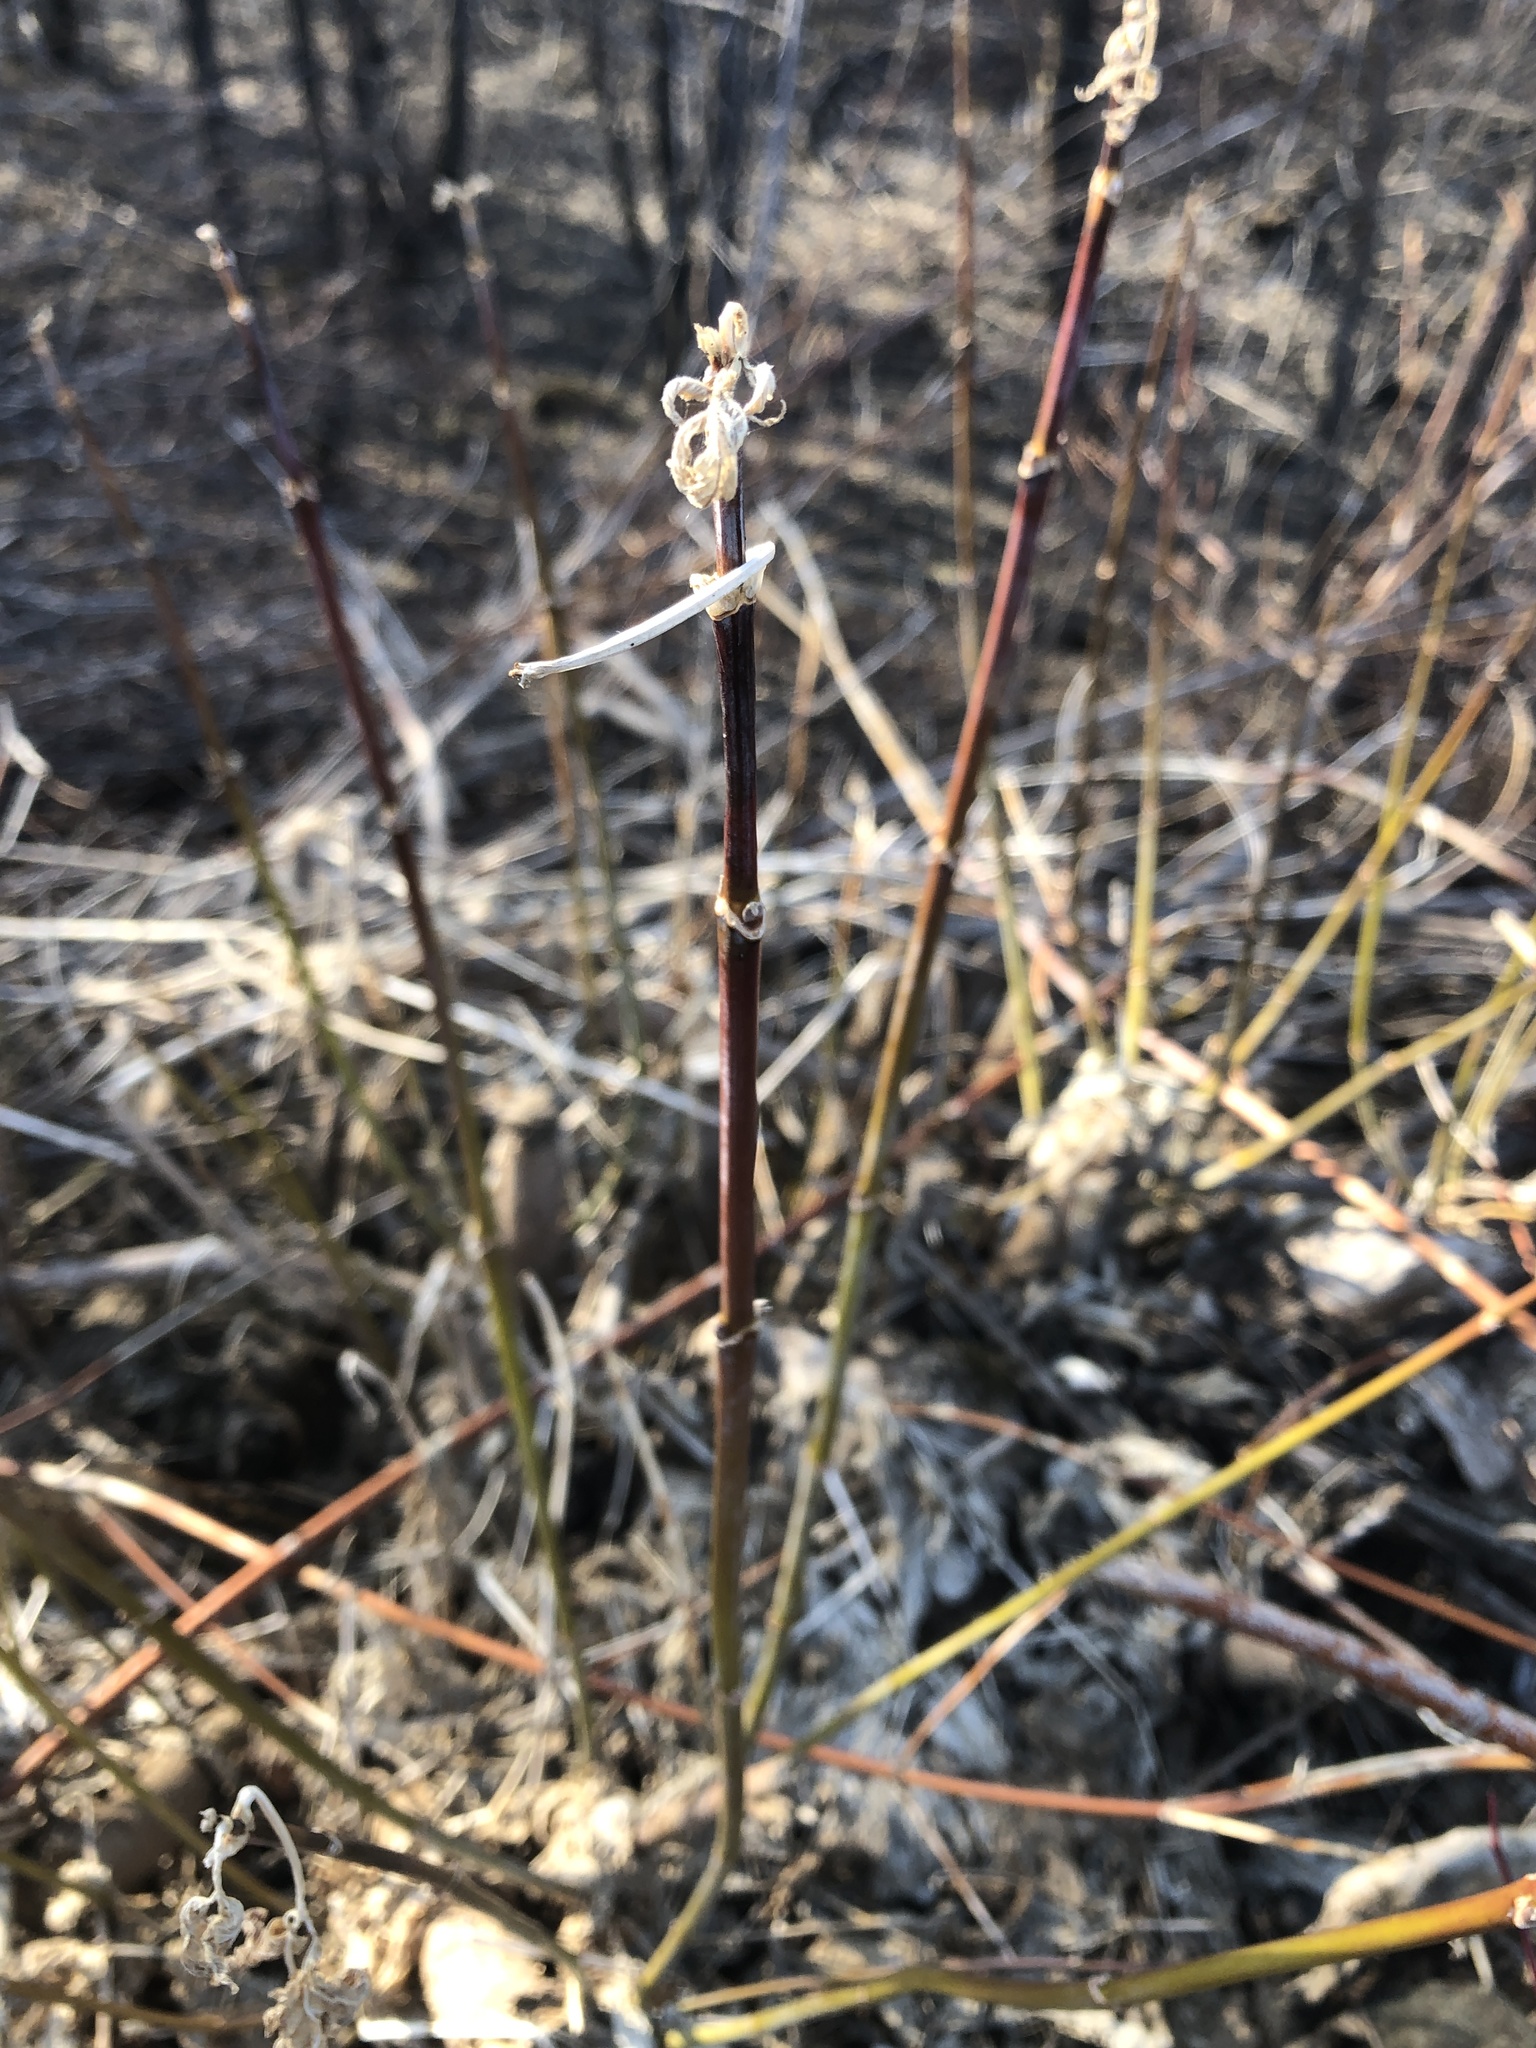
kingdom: Plantae
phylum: Tracheophyta
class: Magnoliopsida
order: Sapindales
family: Sapindaceae
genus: Acer
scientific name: Acer negundo
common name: Ashleaf maple
